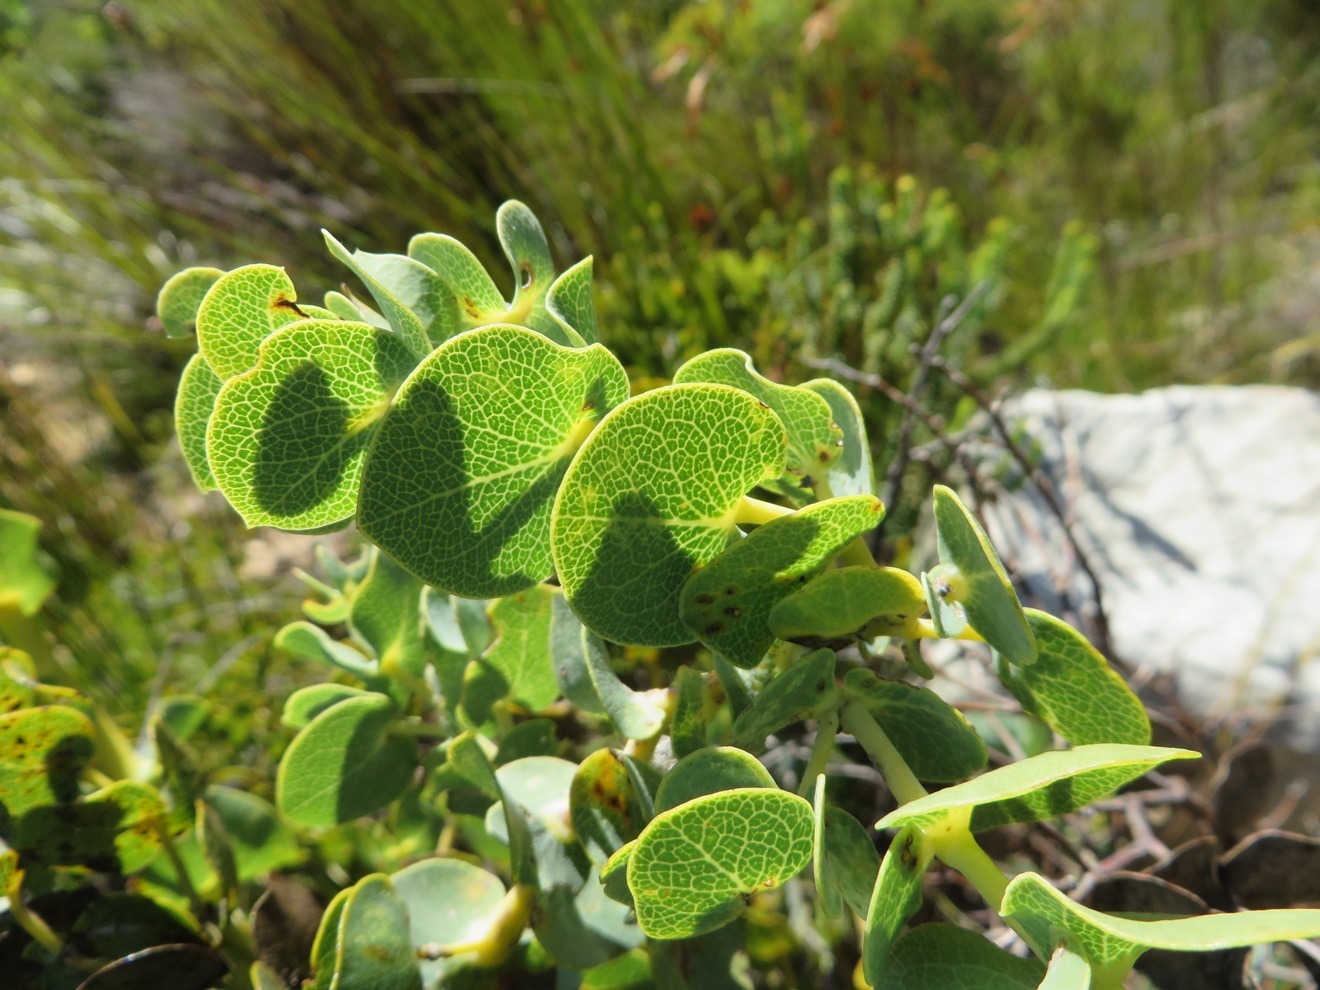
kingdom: Plantae
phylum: Tracheophyta
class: Magnoliopsida
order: Fabales
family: Fabaceae
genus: Rafnia
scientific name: Rafnia acuminata
